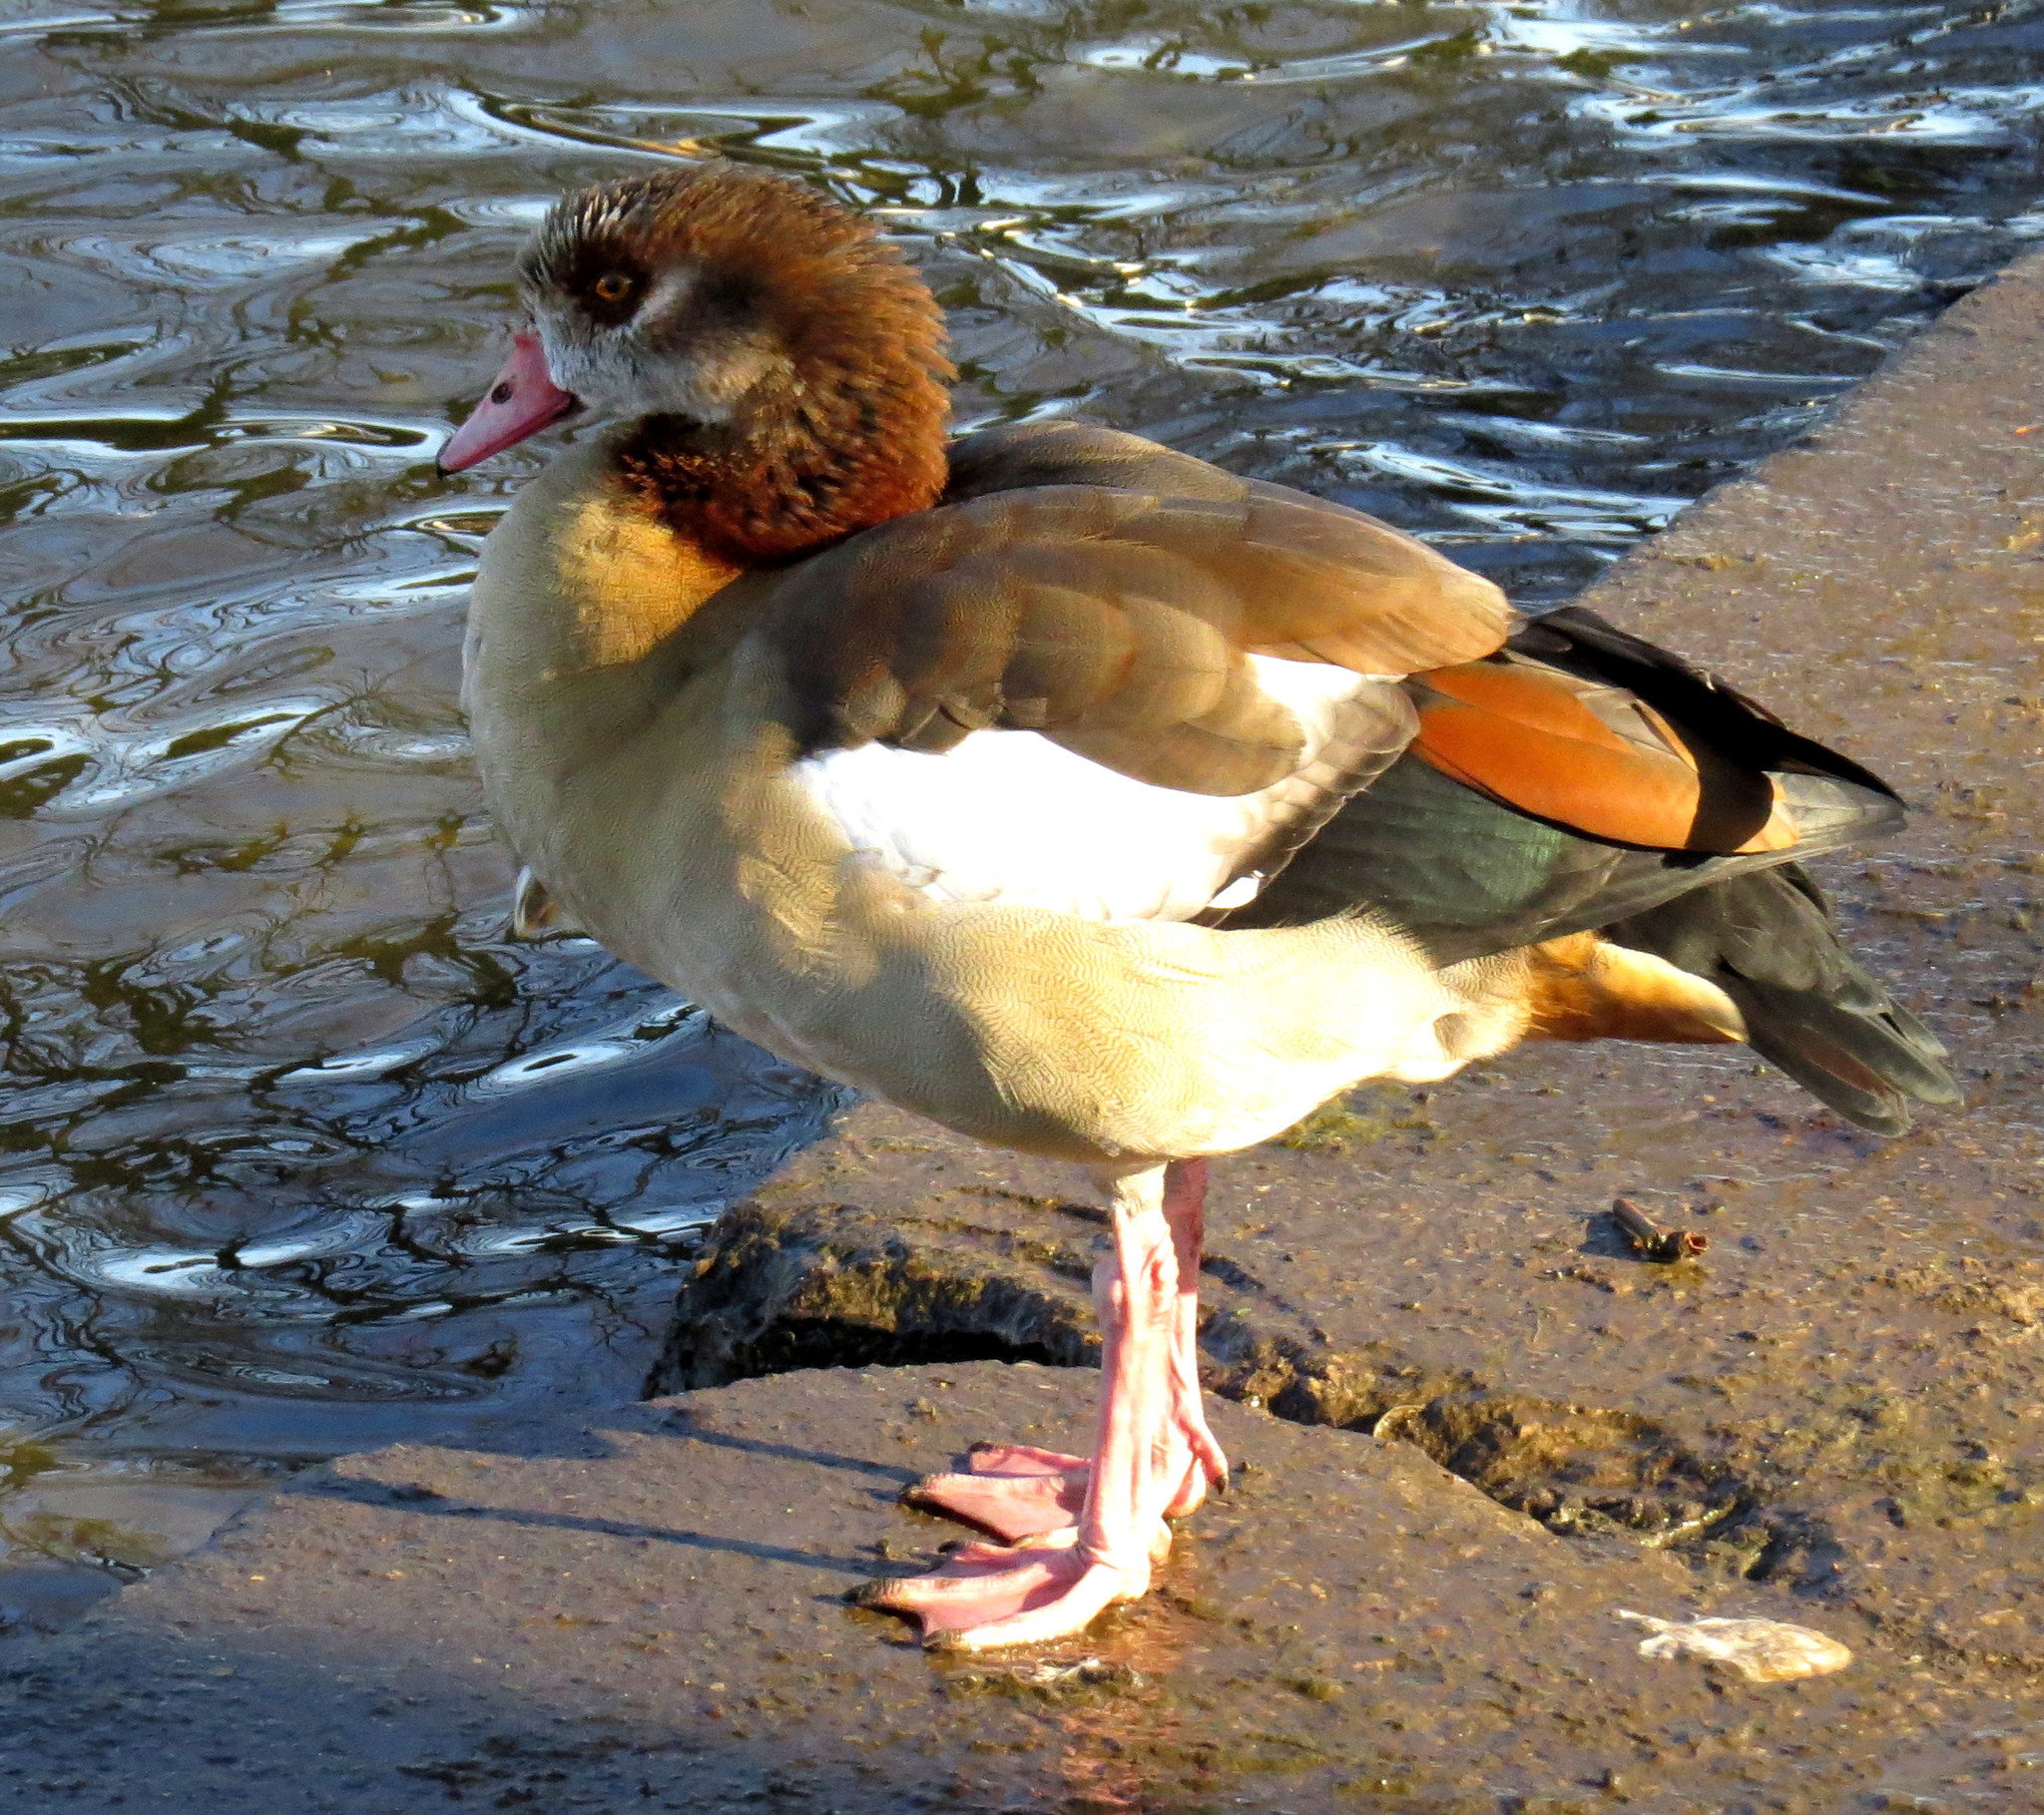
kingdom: Animalia
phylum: Chordata
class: Aves
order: Anseriformes
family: Anatidae
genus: Alopochen
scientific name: Alopochen aegyptiaca
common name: Egyptian goose
